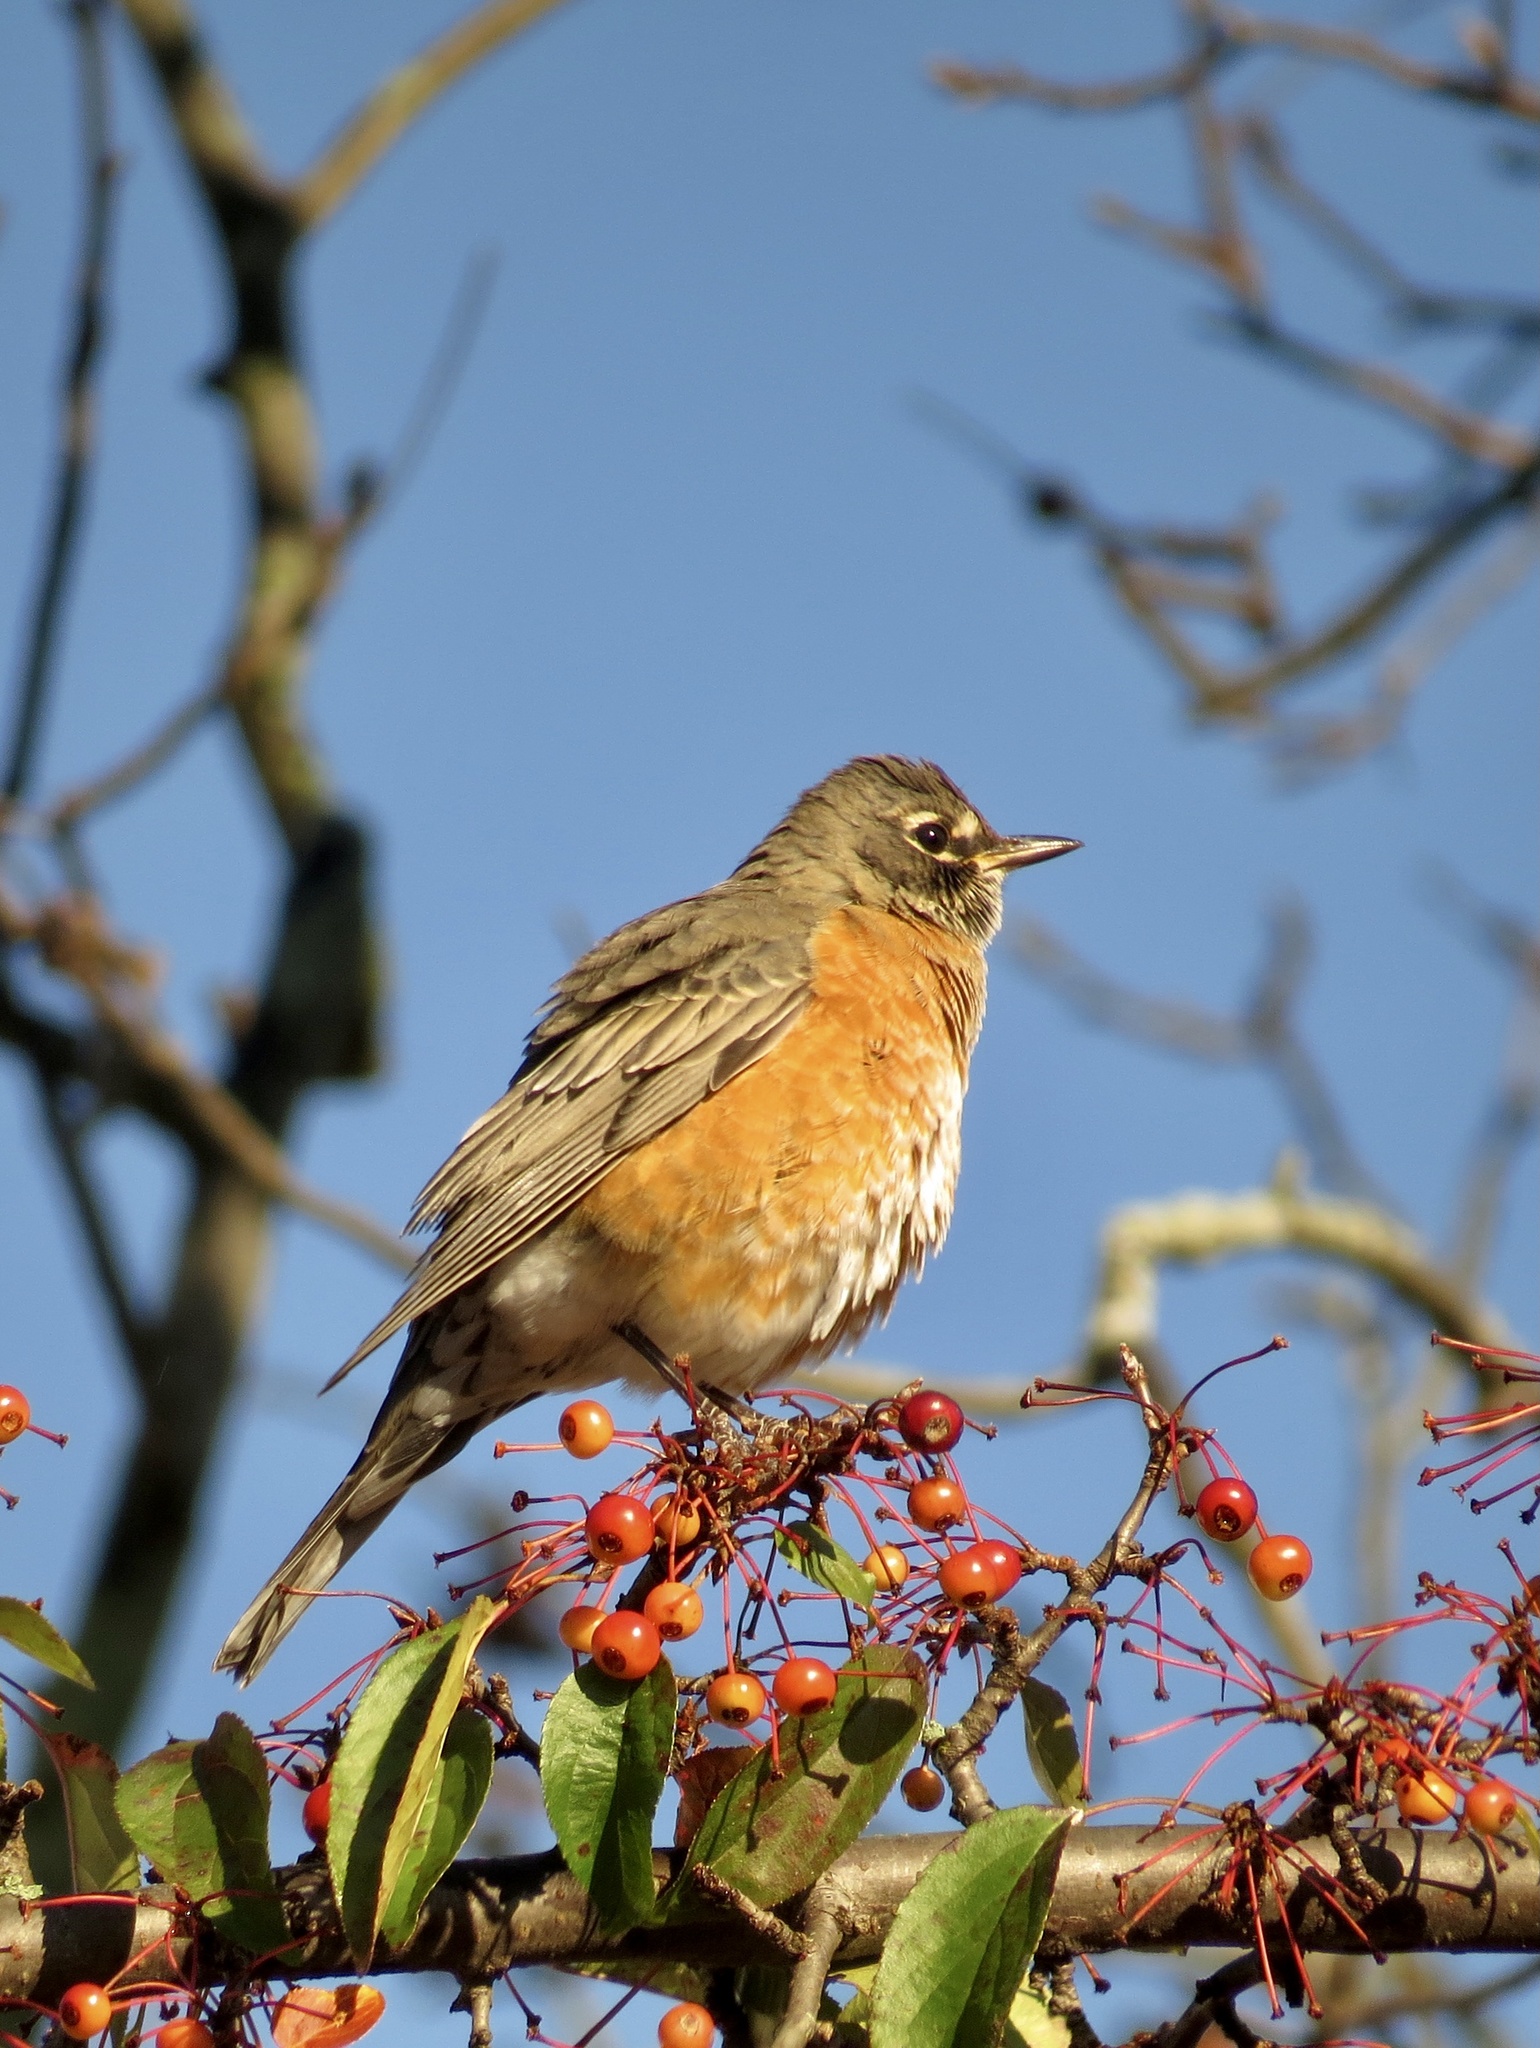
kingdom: Animalia
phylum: Chordata
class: Aves
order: Passeriformes
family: Turdidae
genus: Turdus
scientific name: Turdus migratorius
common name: American robin
